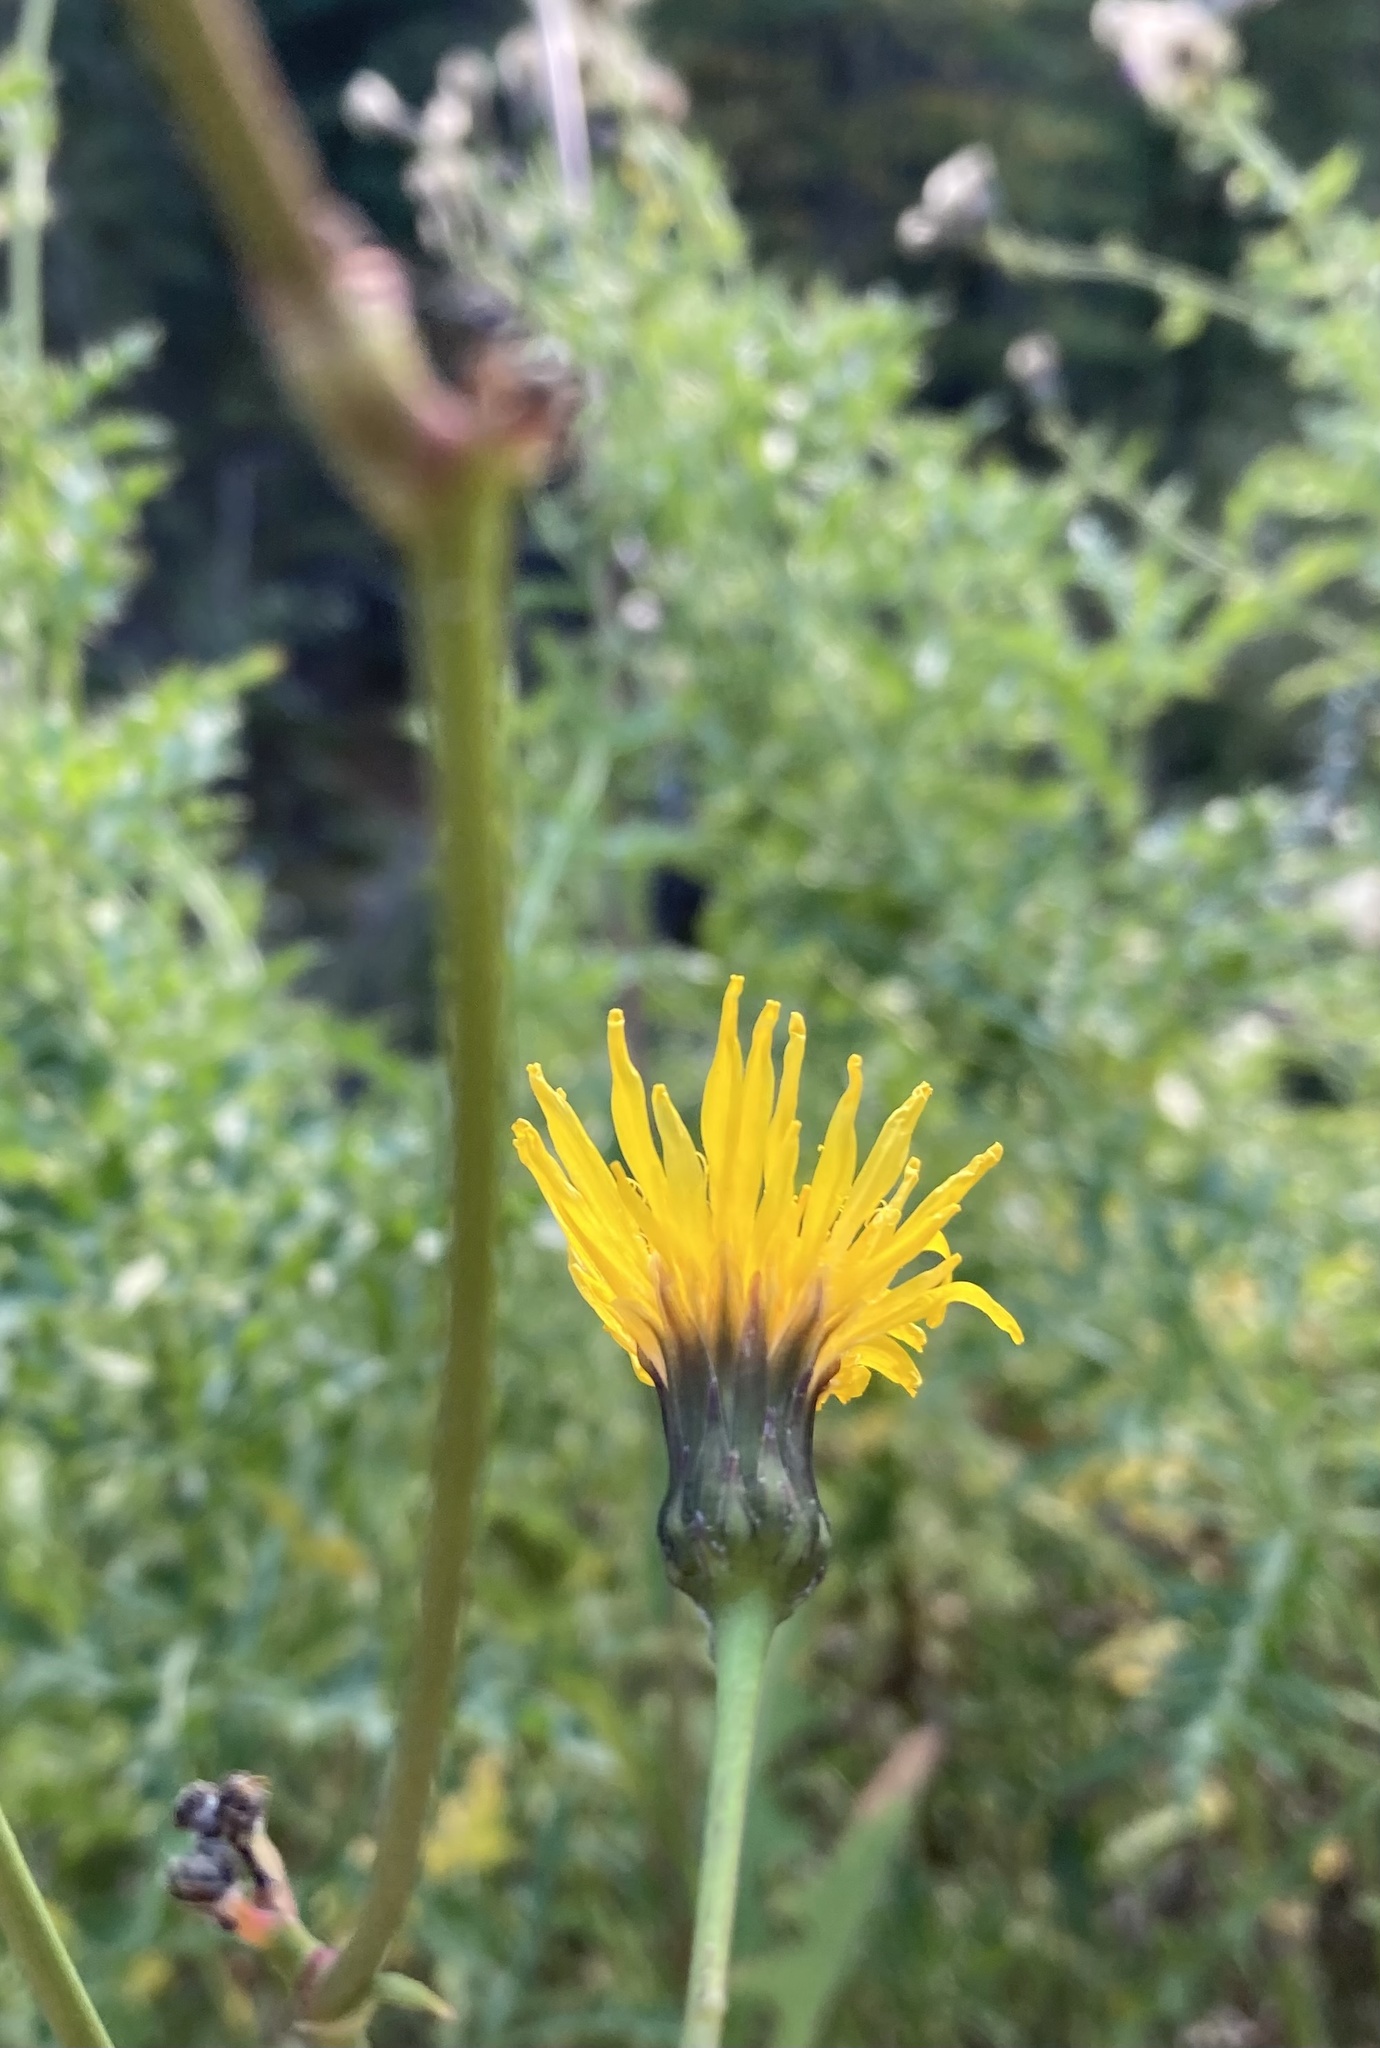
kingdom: Plantae
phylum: Tracheophyta
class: Magnoliopsida
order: Asterales
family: Asteraceae
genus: Sonchus
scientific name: Sonchus arvensis
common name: Perennial sow-thistle
